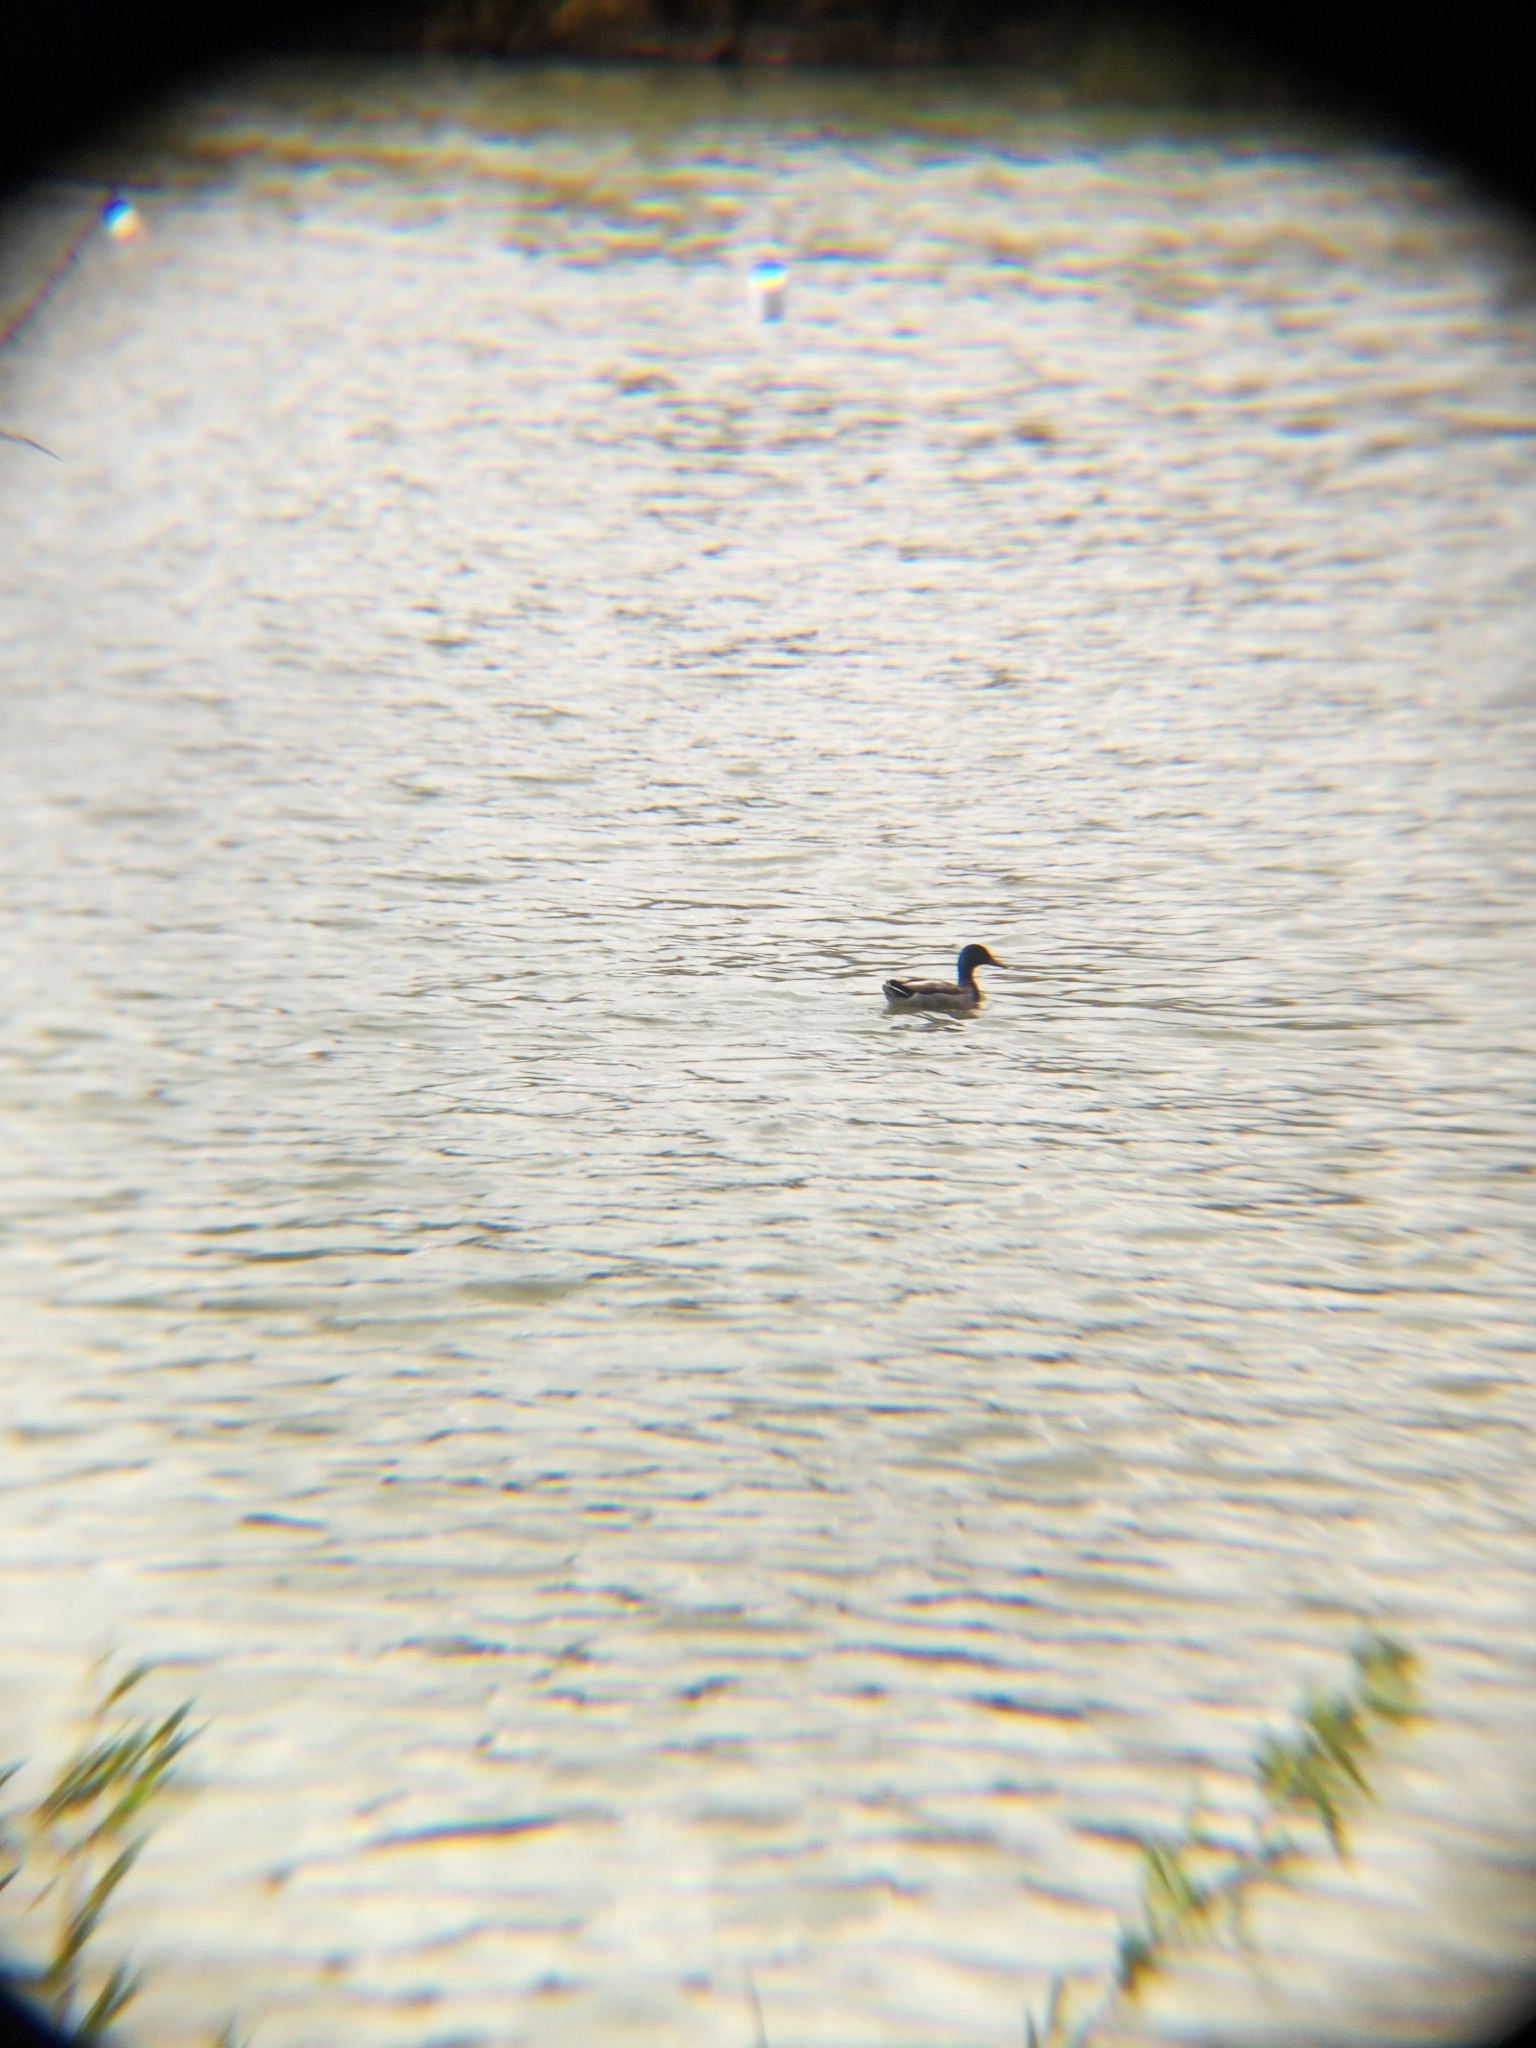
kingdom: Animalia
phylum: Chordata
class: Aves
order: Anseriformes
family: Anatidae
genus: Anas
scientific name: Anas platyrhynchos
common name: Mallard
